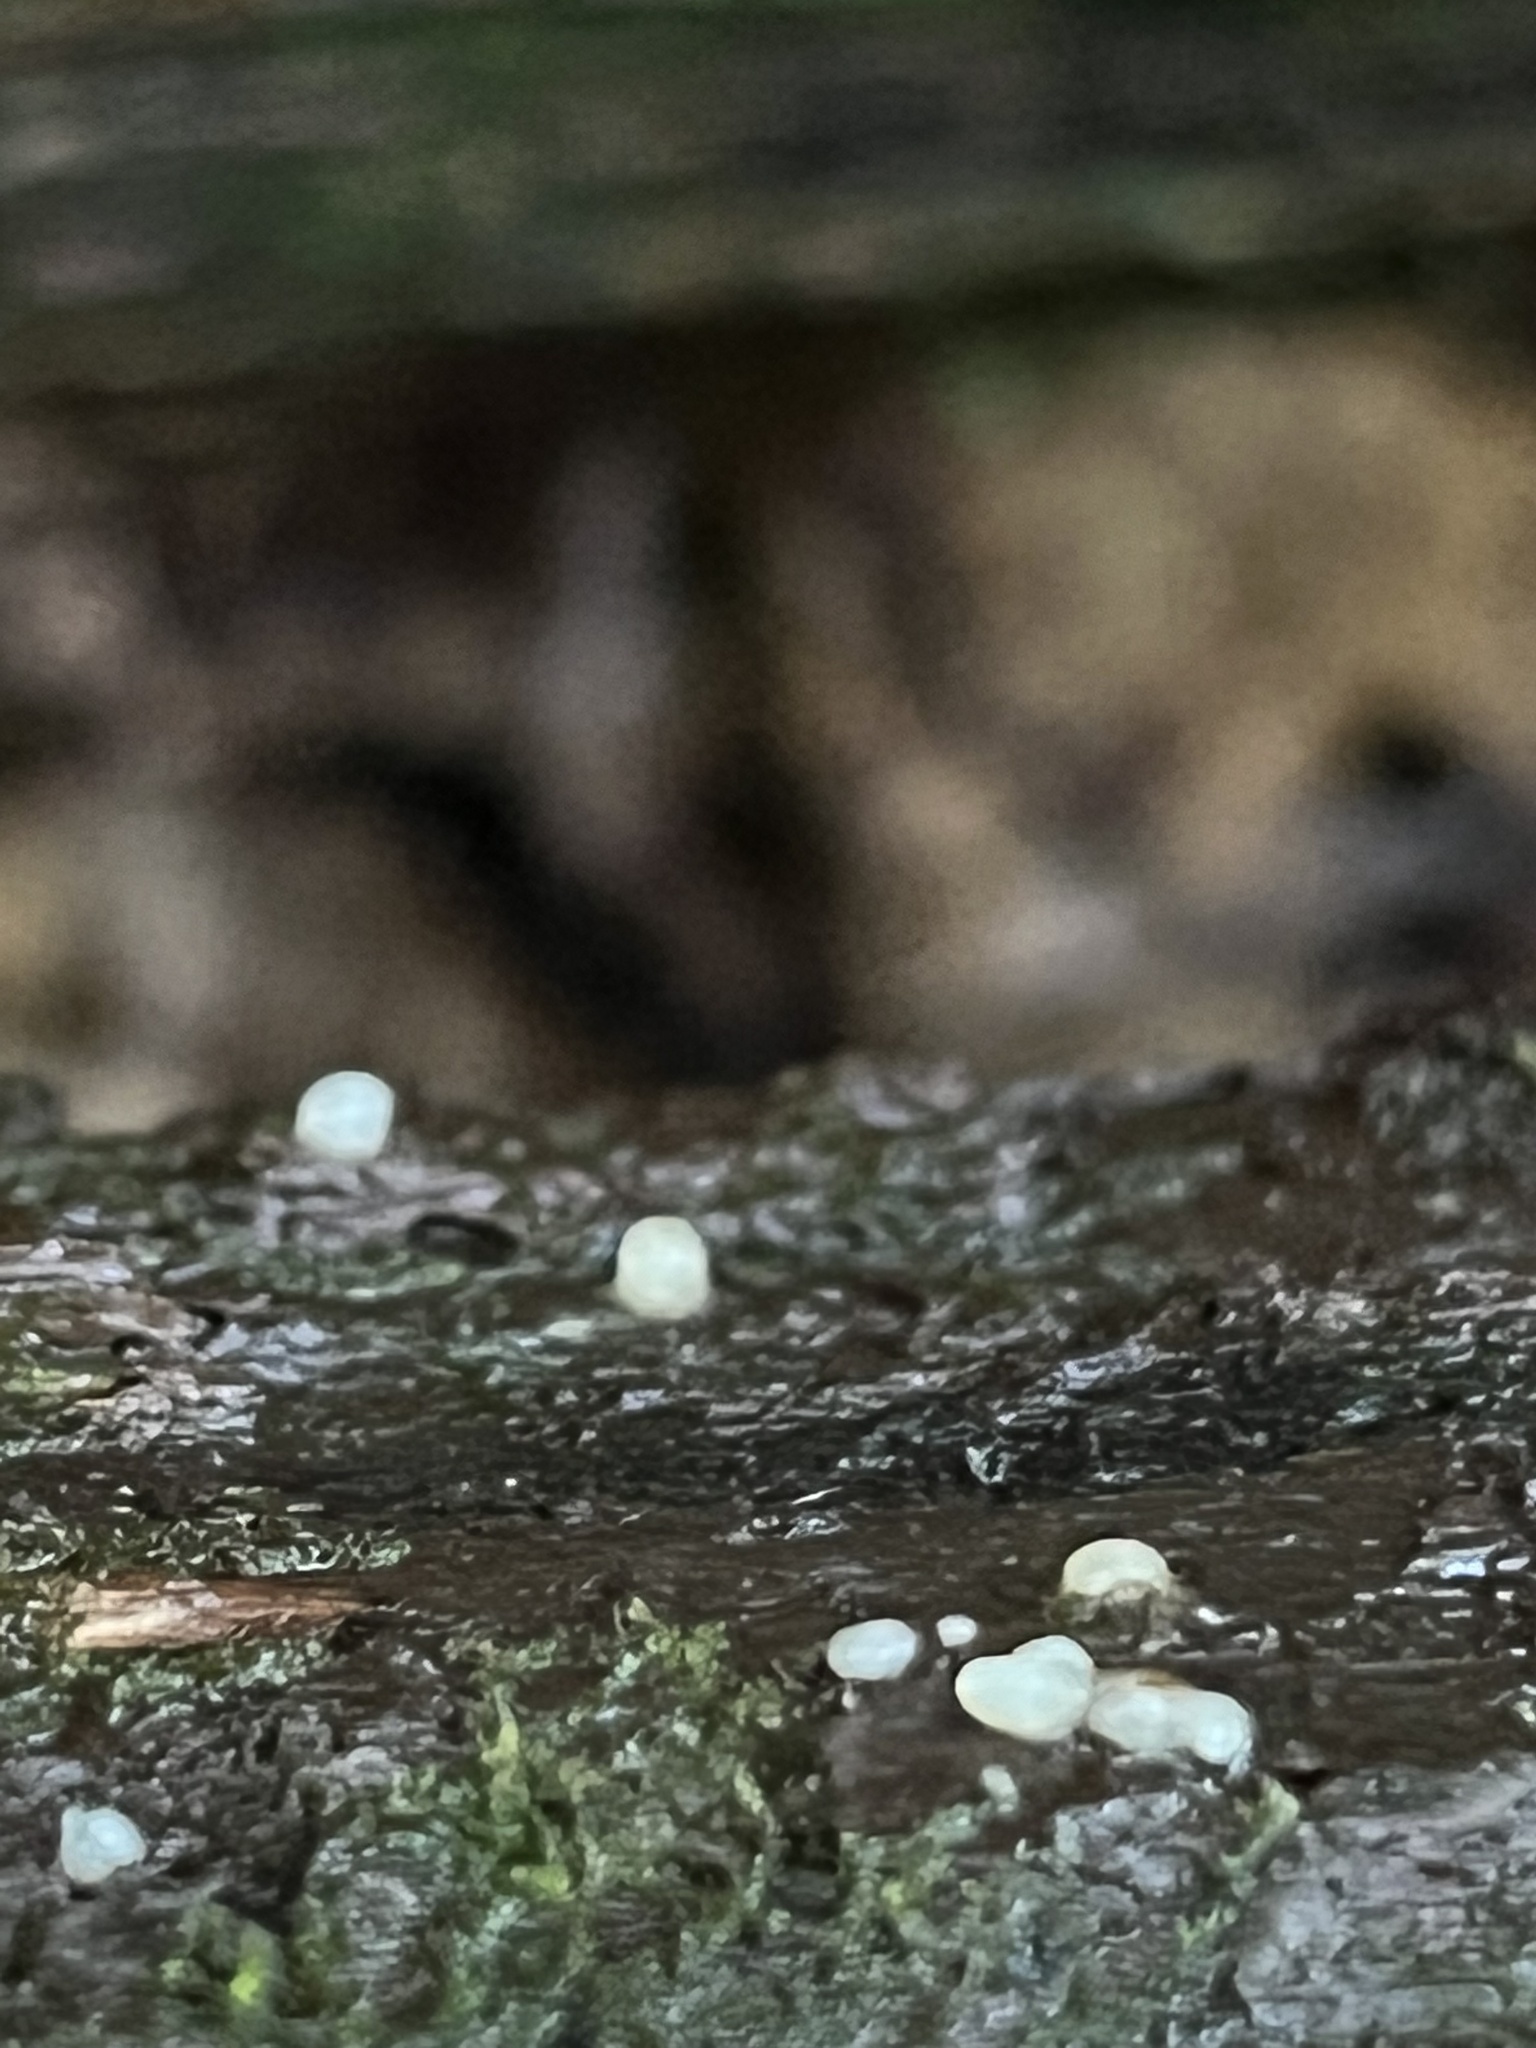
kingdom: Fungi
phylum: Basidiomycota
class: Atractiellomycetes
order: Atractiellales
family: Phleogenaceae
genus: Helicogloea
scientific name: Helicogloea compressa
